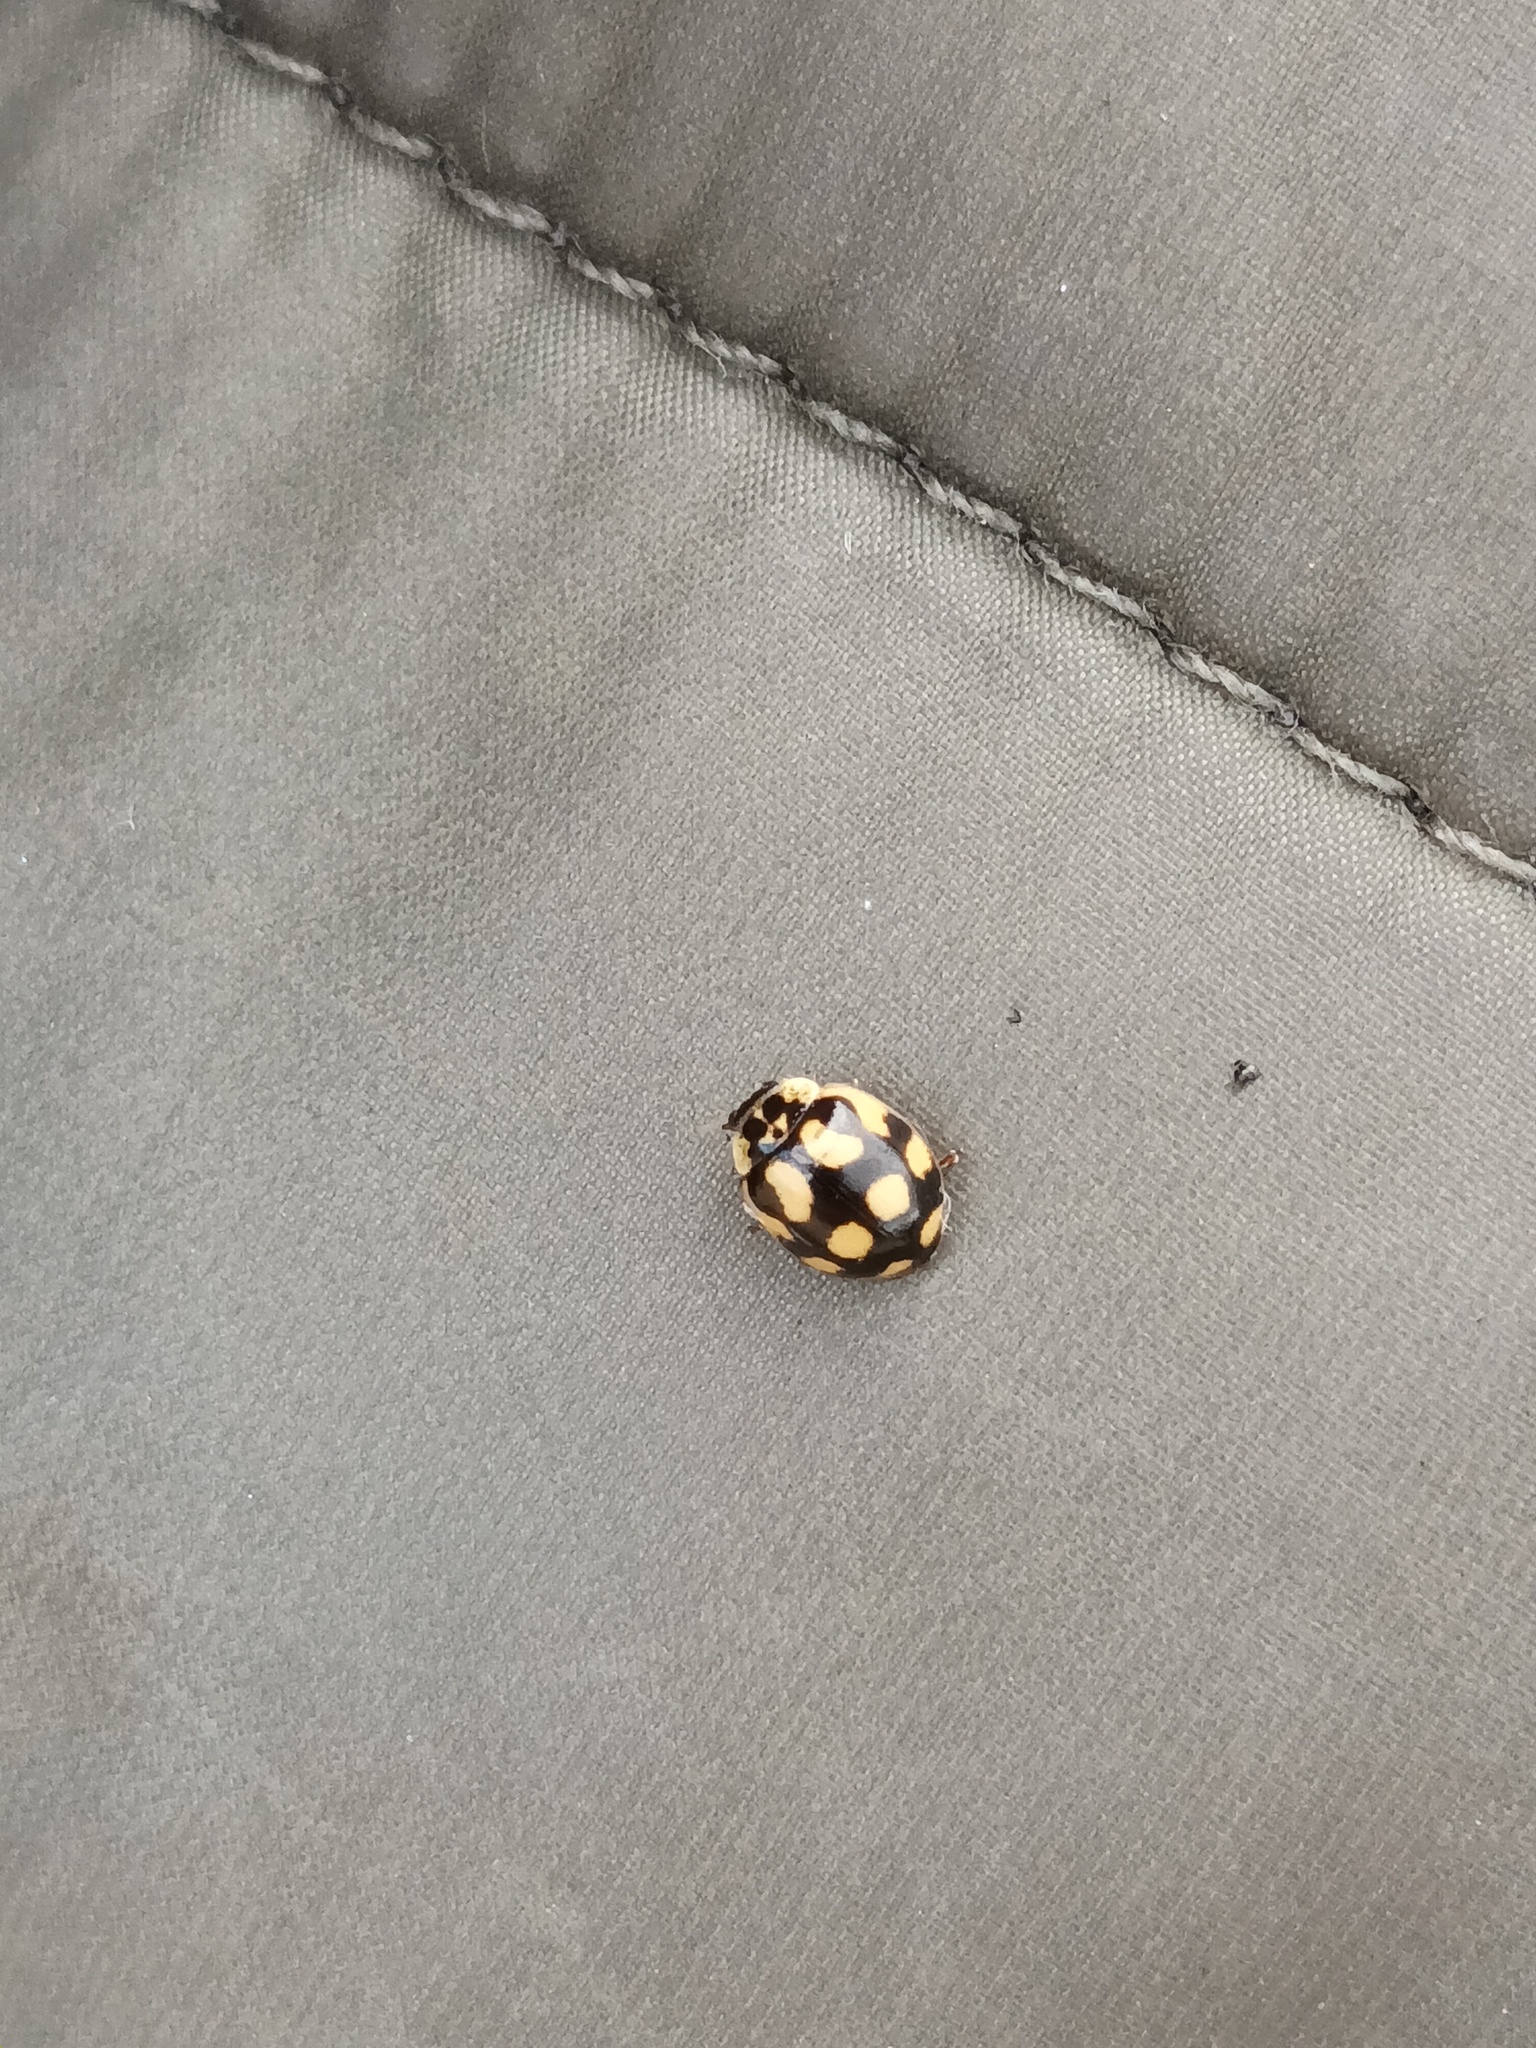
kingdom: Animalia
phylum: Arthropoda
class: Insecta
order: Coleoptera
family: Coccinellidae
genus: Adalia
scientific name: Adalia decempunctata
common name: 10-spot ladybird
